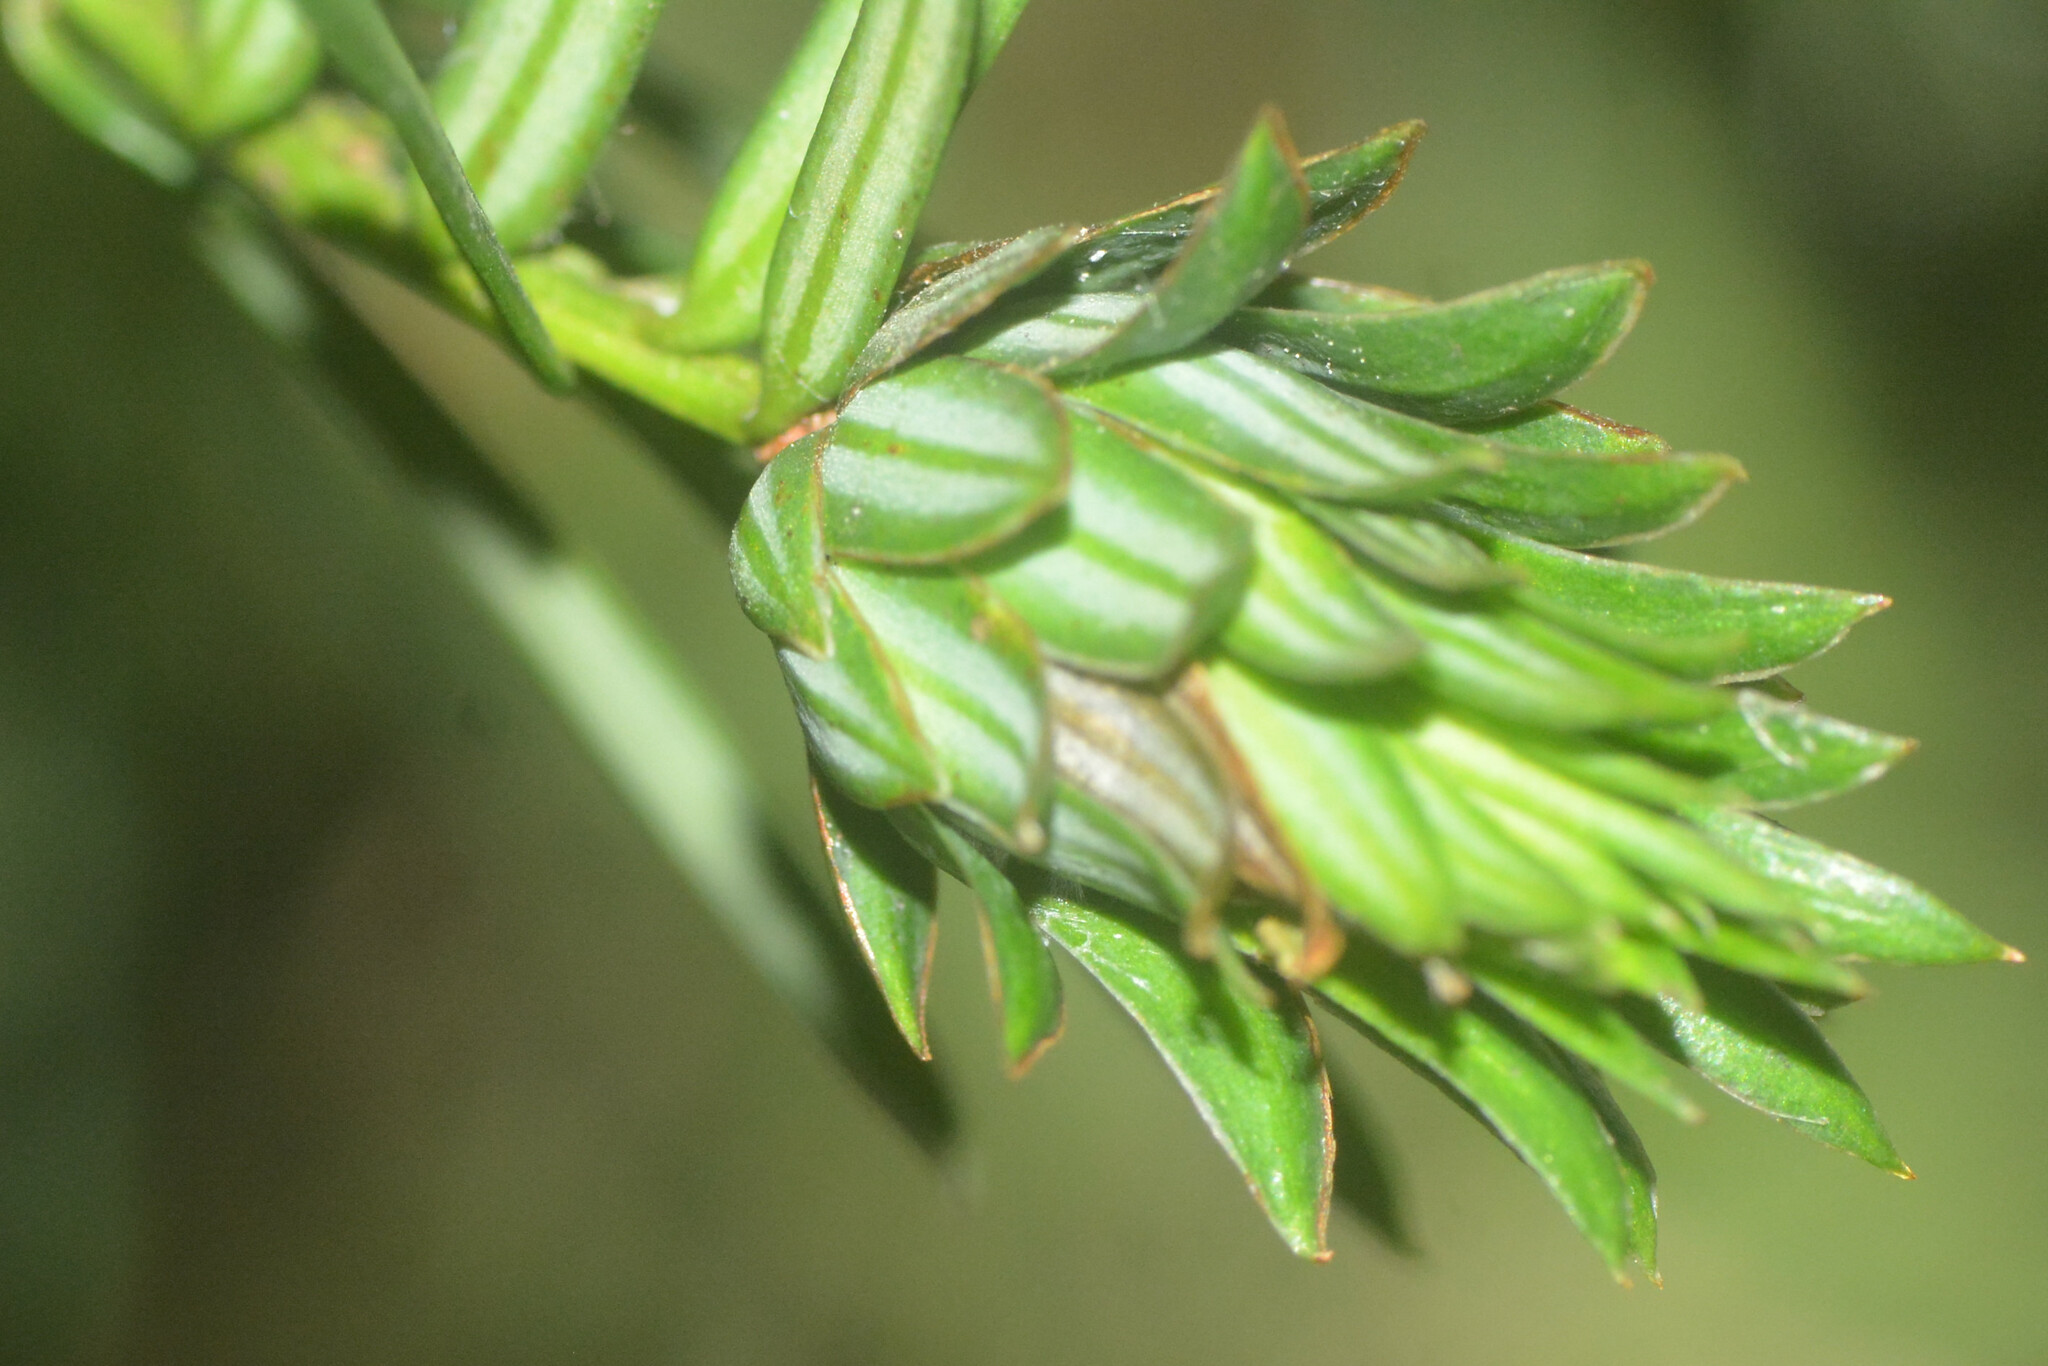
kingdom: Animalia
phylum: Arthropoda
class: Insecta
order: Diptera
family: Cecidomyiidae
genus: Taxomyia
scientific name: Taxomyia taxi
